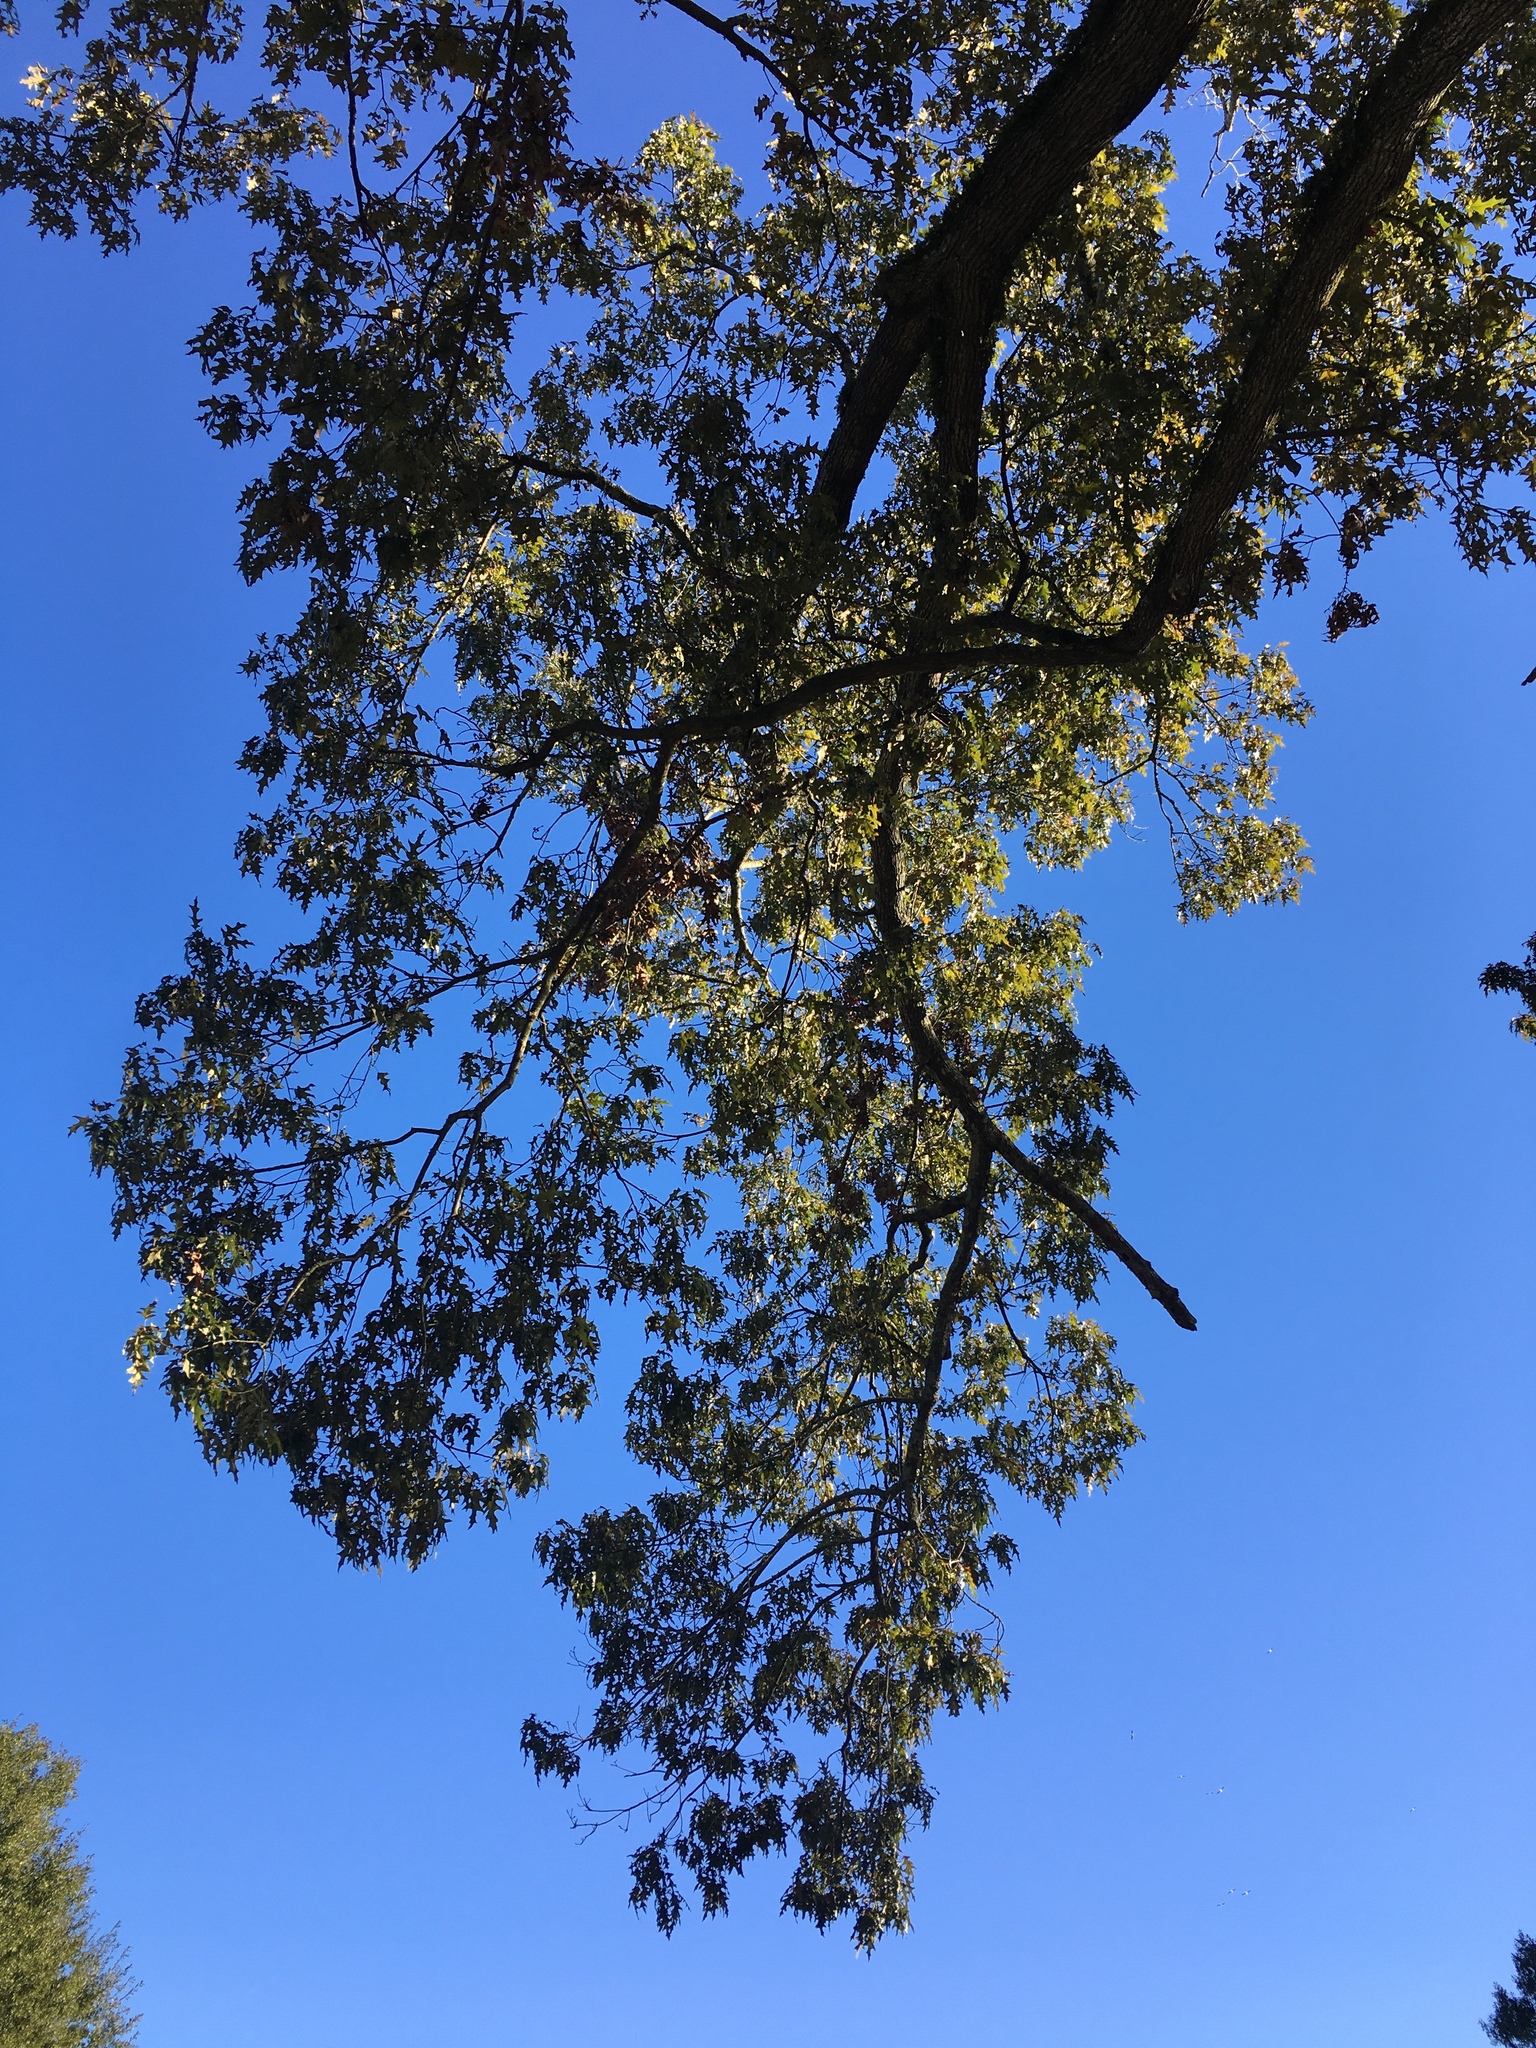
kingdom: Plantae
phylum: Tracheophyta
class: Magnoliopsida
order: Fagales
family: Fagaceae
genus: Quercus
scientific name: Quercus velutina
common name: Black oak
